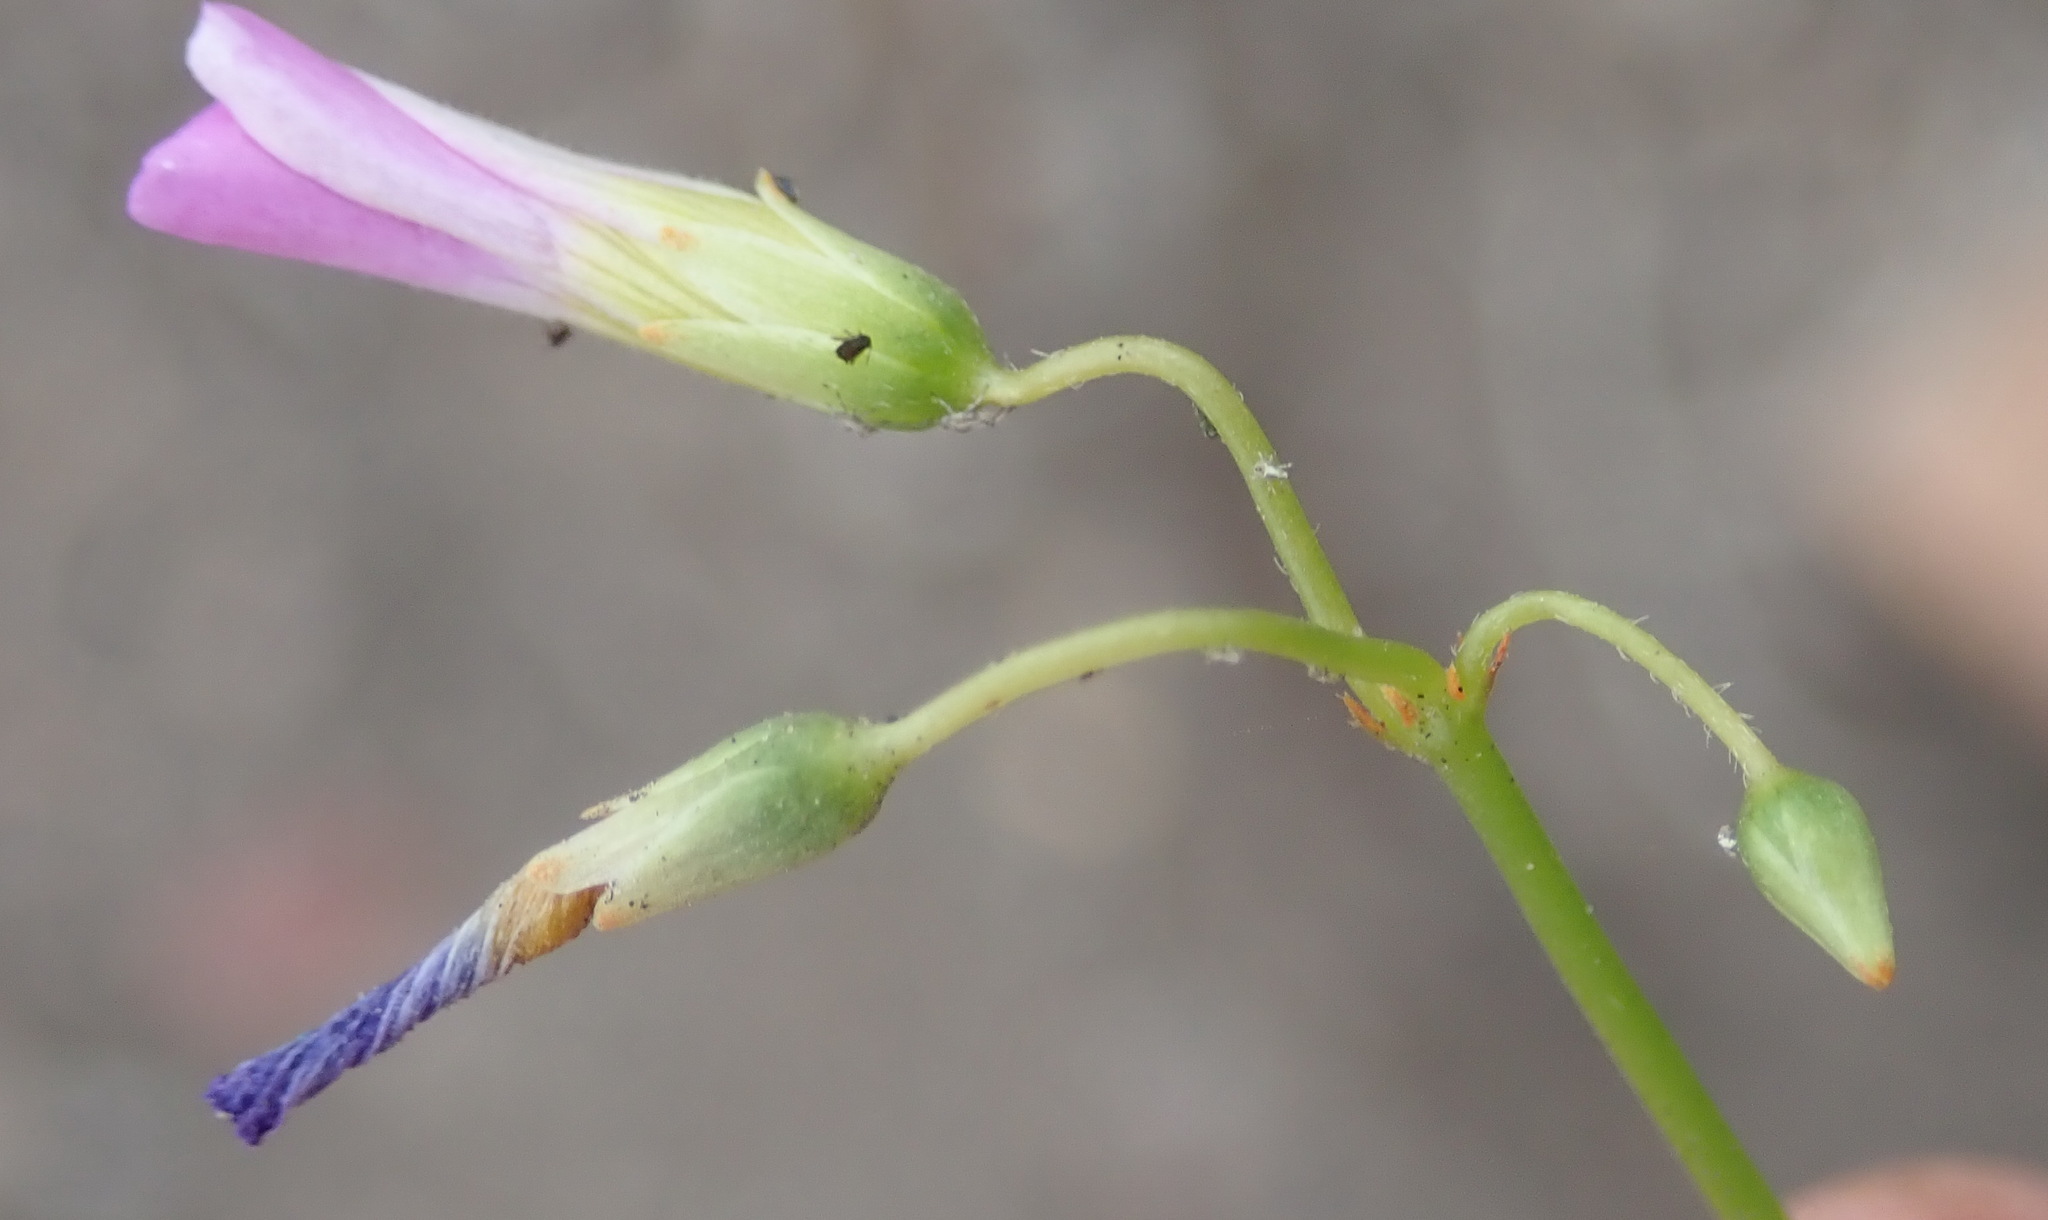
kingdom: Plantae
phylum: Tracheophyta
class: Magnoliopsida
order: Oxalidales
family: Oxalidaceae
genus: Oxalis
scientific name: Oxalis stellata
